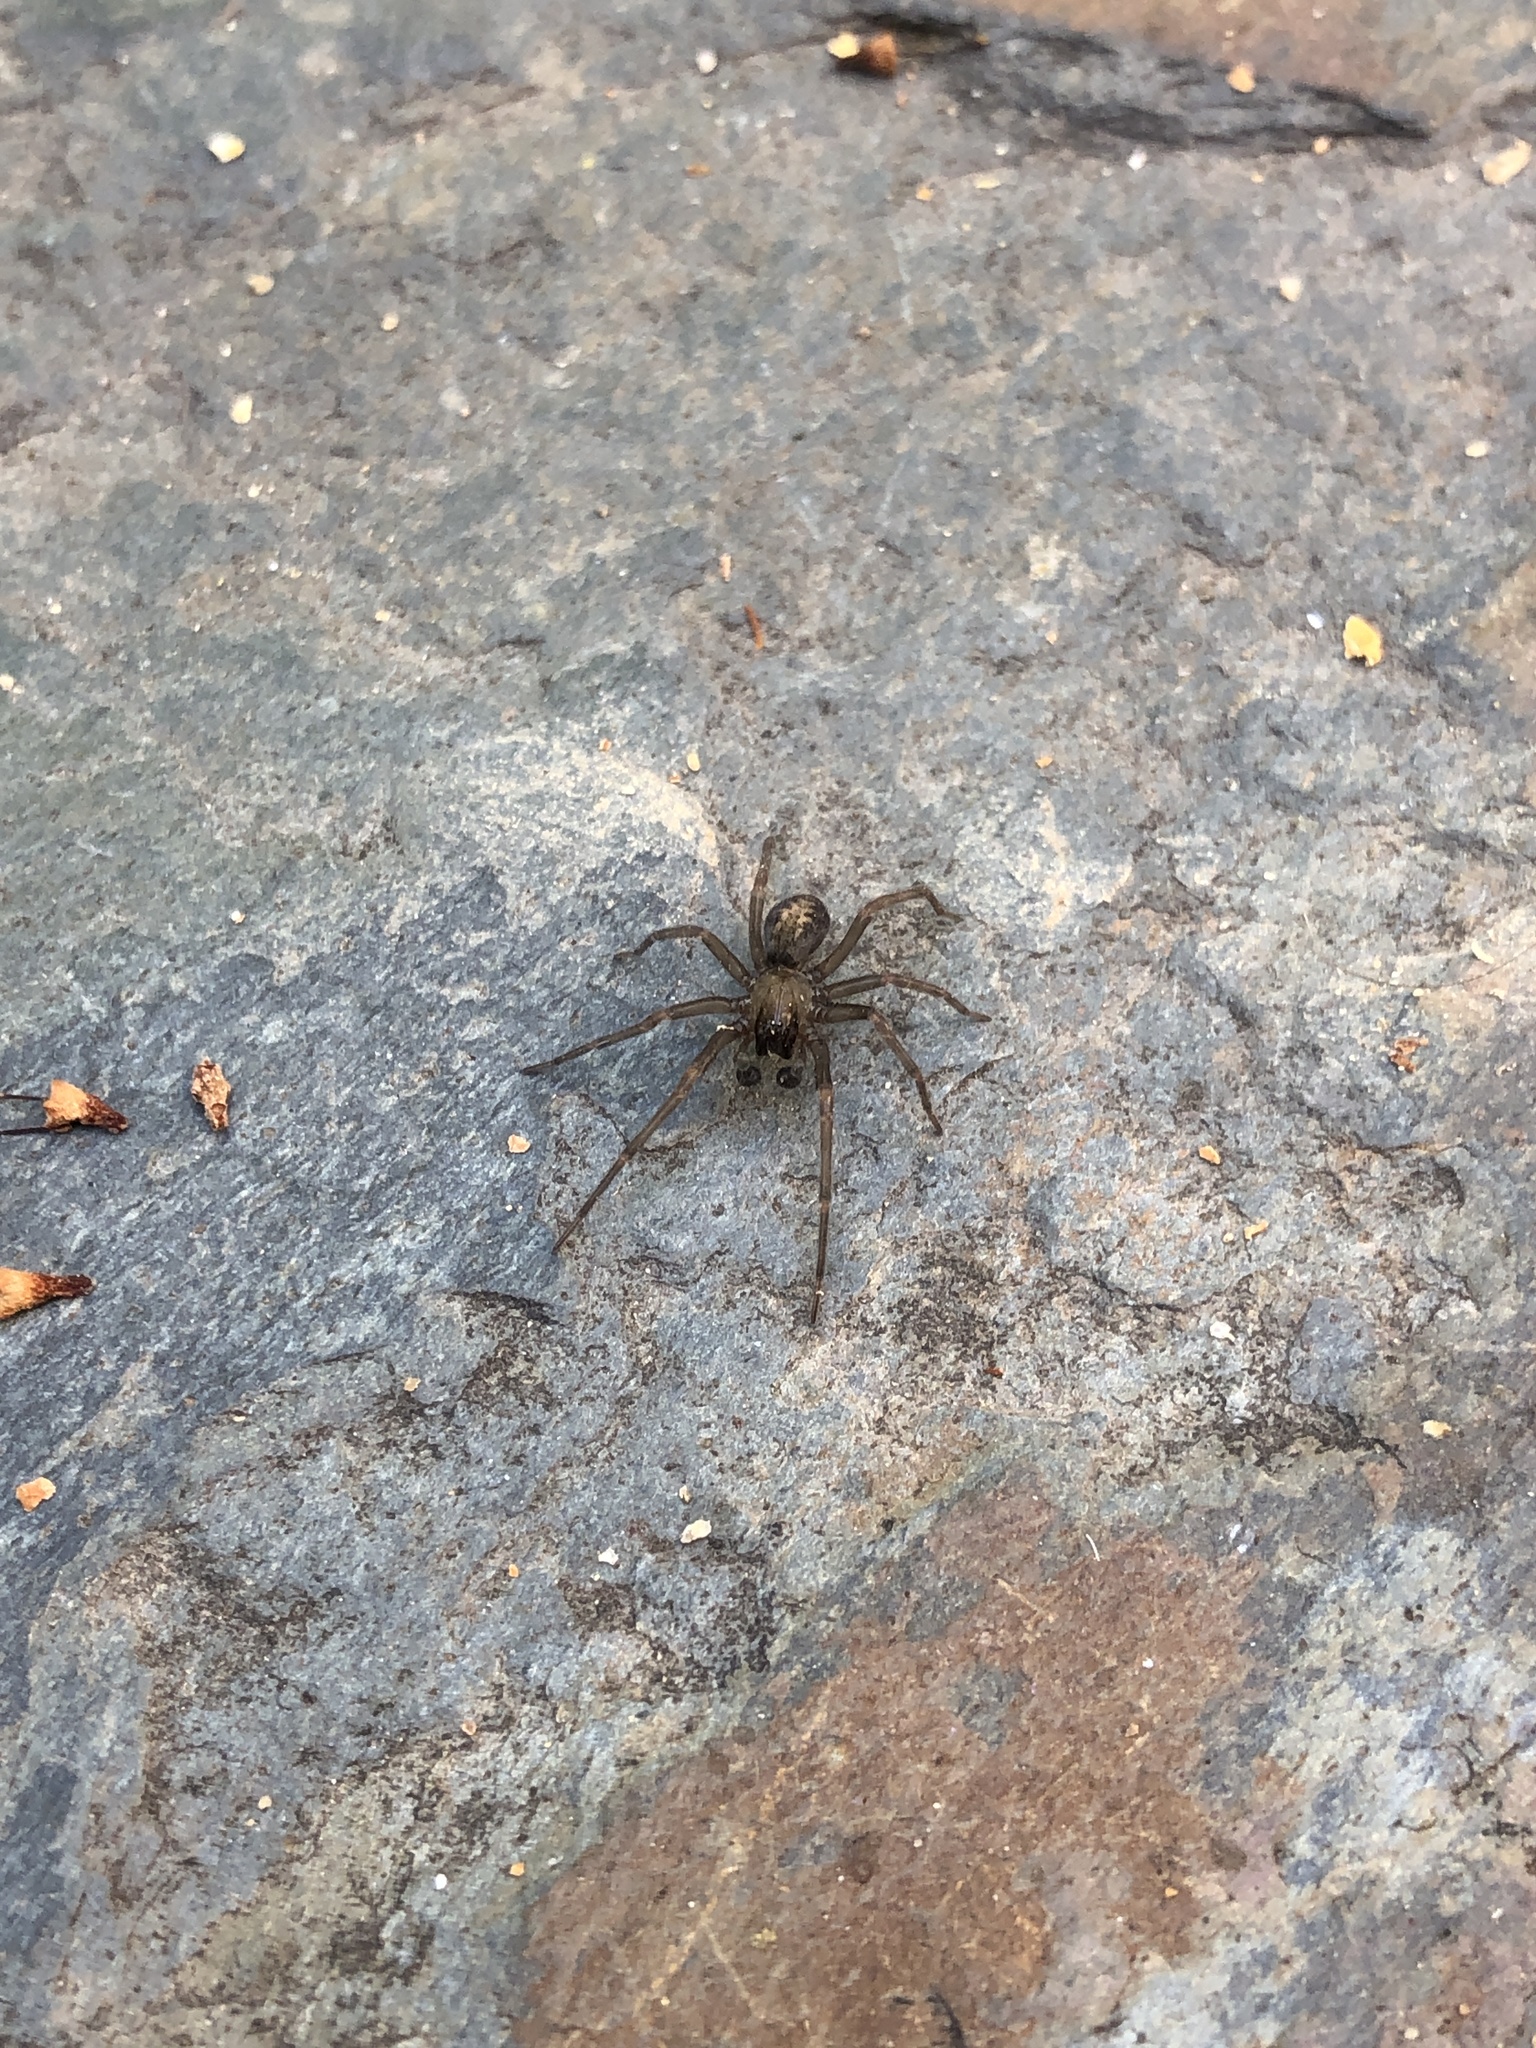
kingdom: Animalia
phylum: Arthropoda
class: Arachnida
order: Araneae
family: Desidae
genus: Metaltella
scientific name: Metaltella simoni
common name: Cribellate spider
